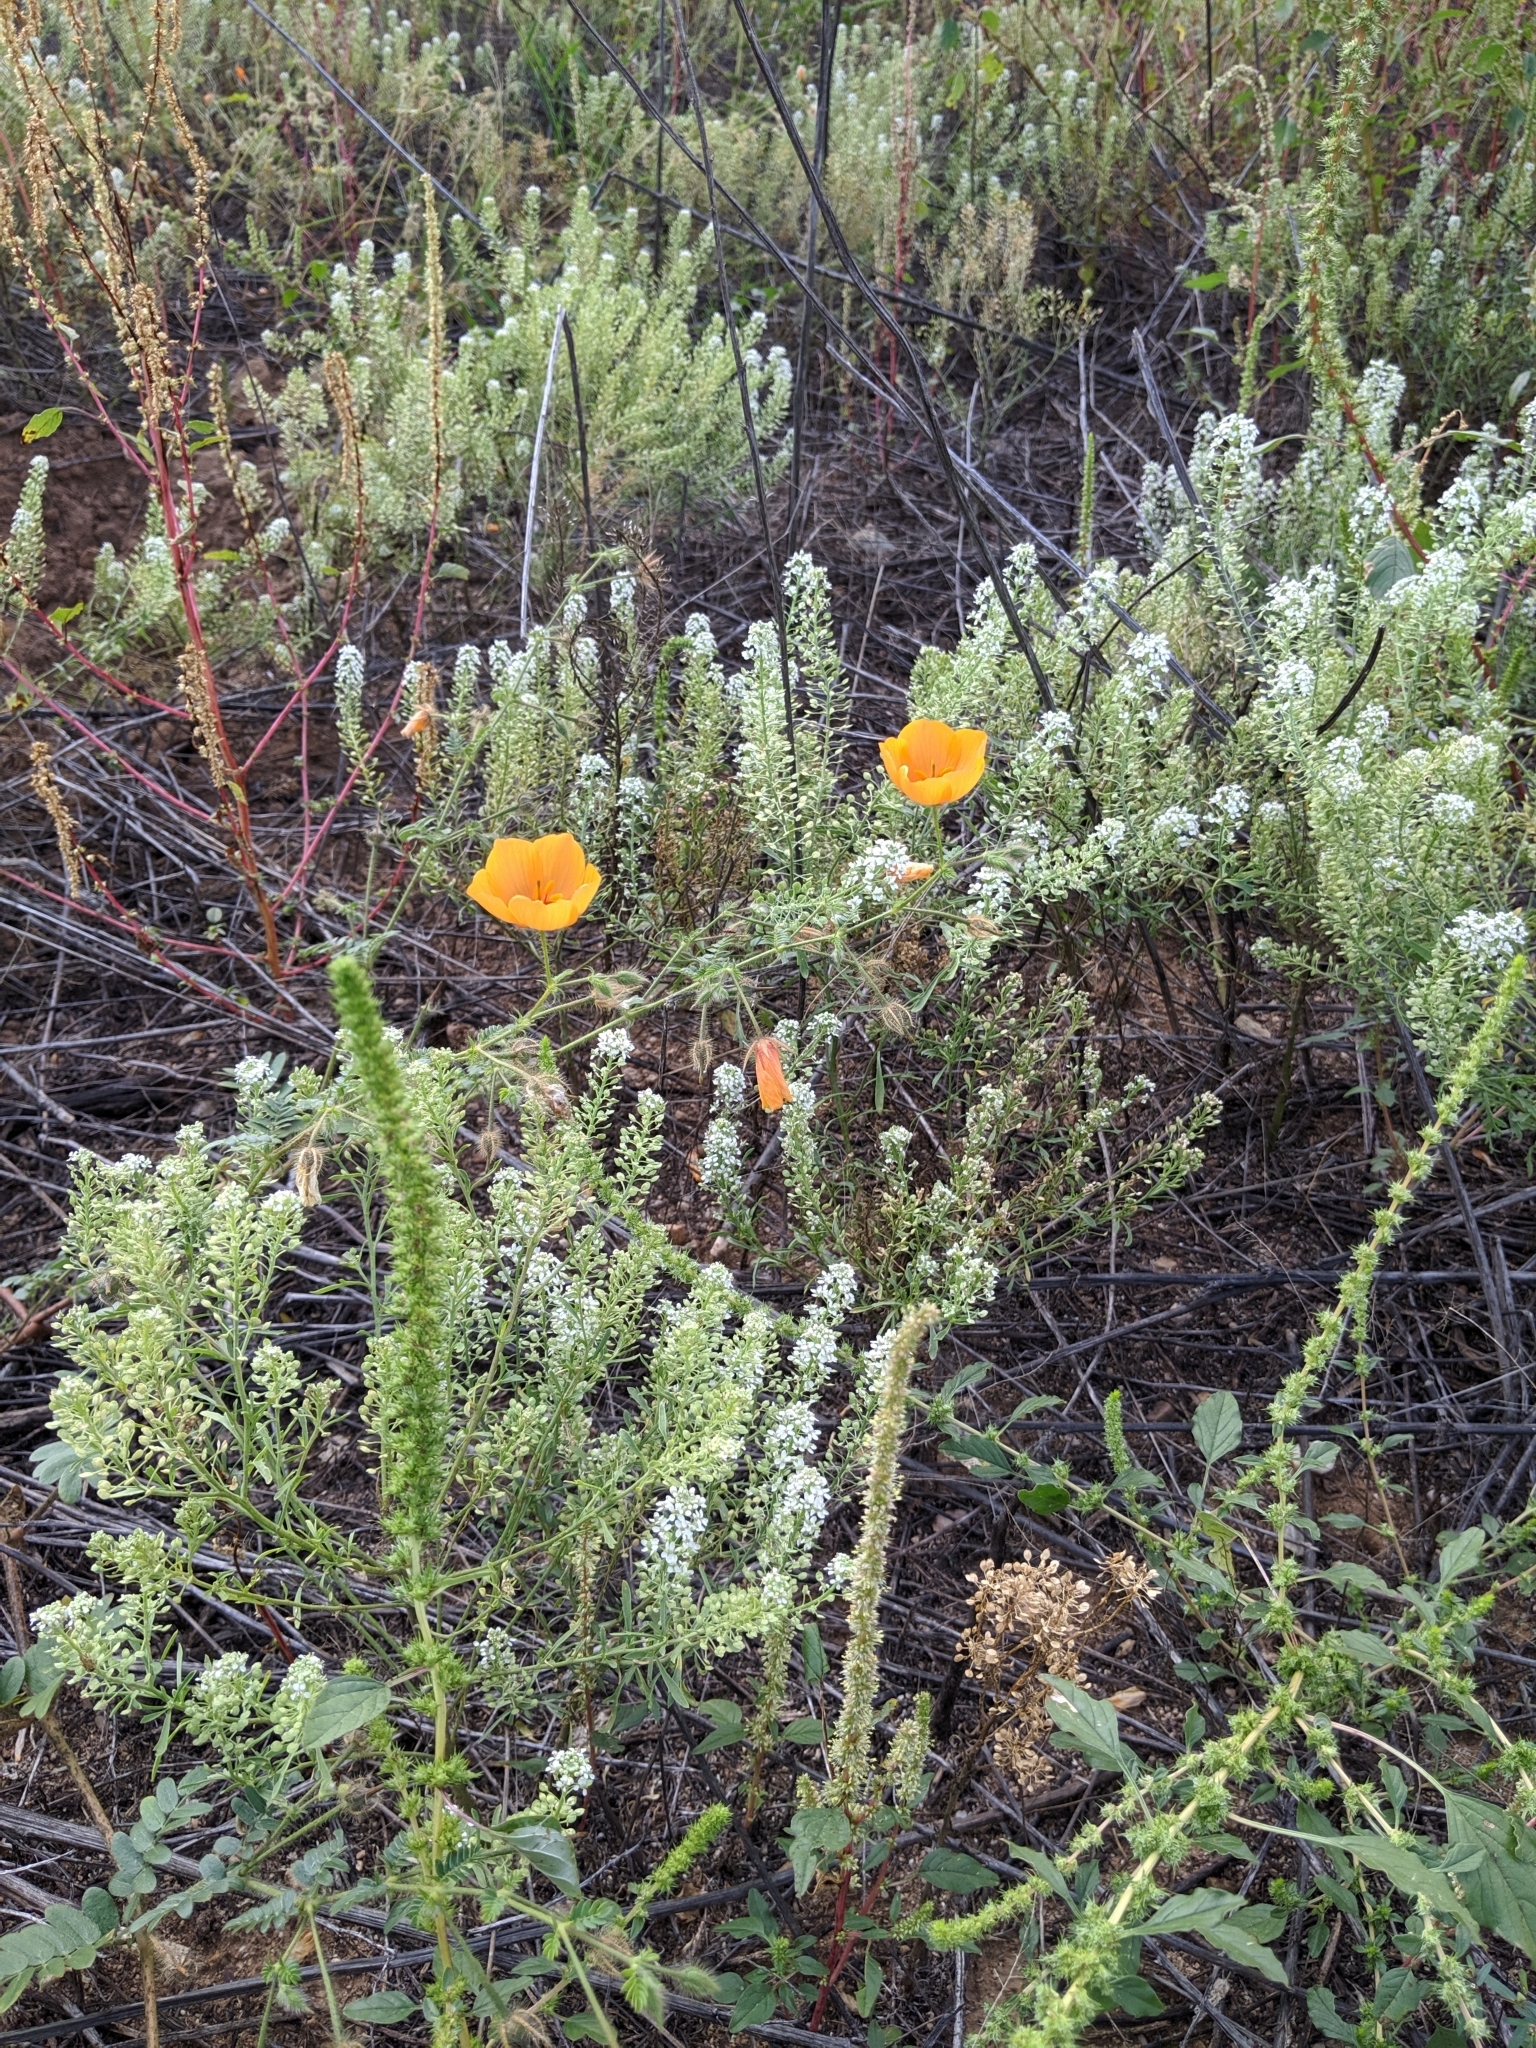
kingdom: Plantae
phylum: Tracheophyta
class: Magnoliopsida
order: Zygophyllales
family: Zygophyllaceae
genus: Kallstroemia
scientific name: Kallstroemia grandiflora
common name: Arizona-poppy
